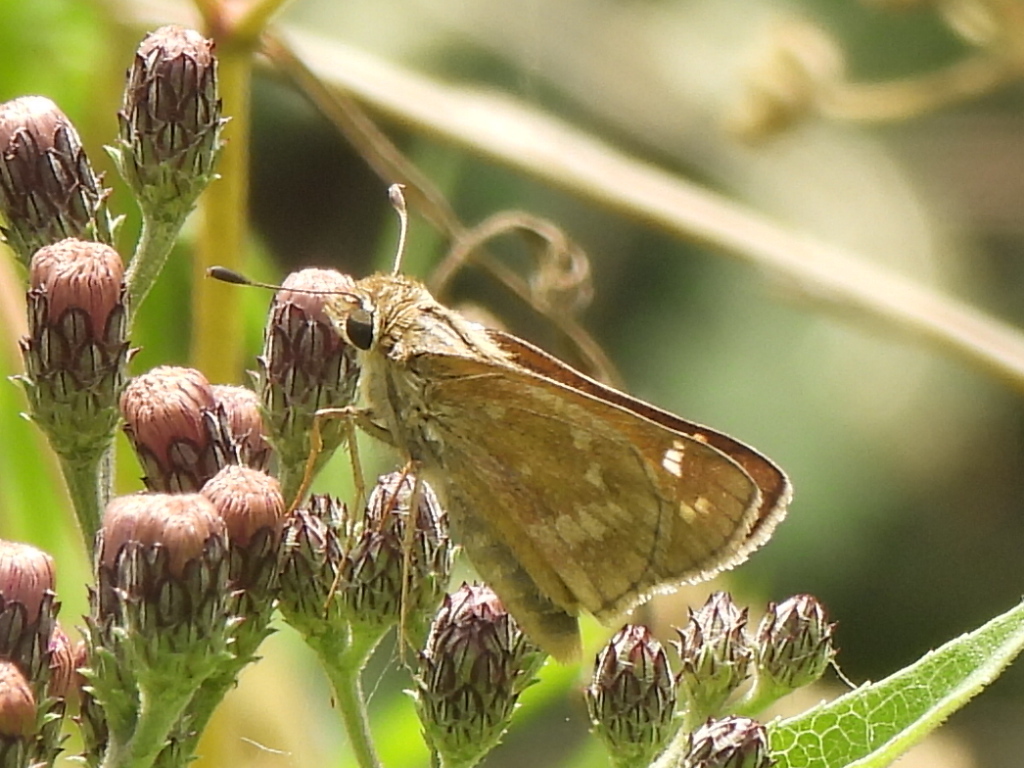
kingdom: Animalia
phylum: Arthropoda
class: Insecta
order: Lepidoptera
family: Hesperiidae
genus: Atalopedes
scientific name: Atalopedes
